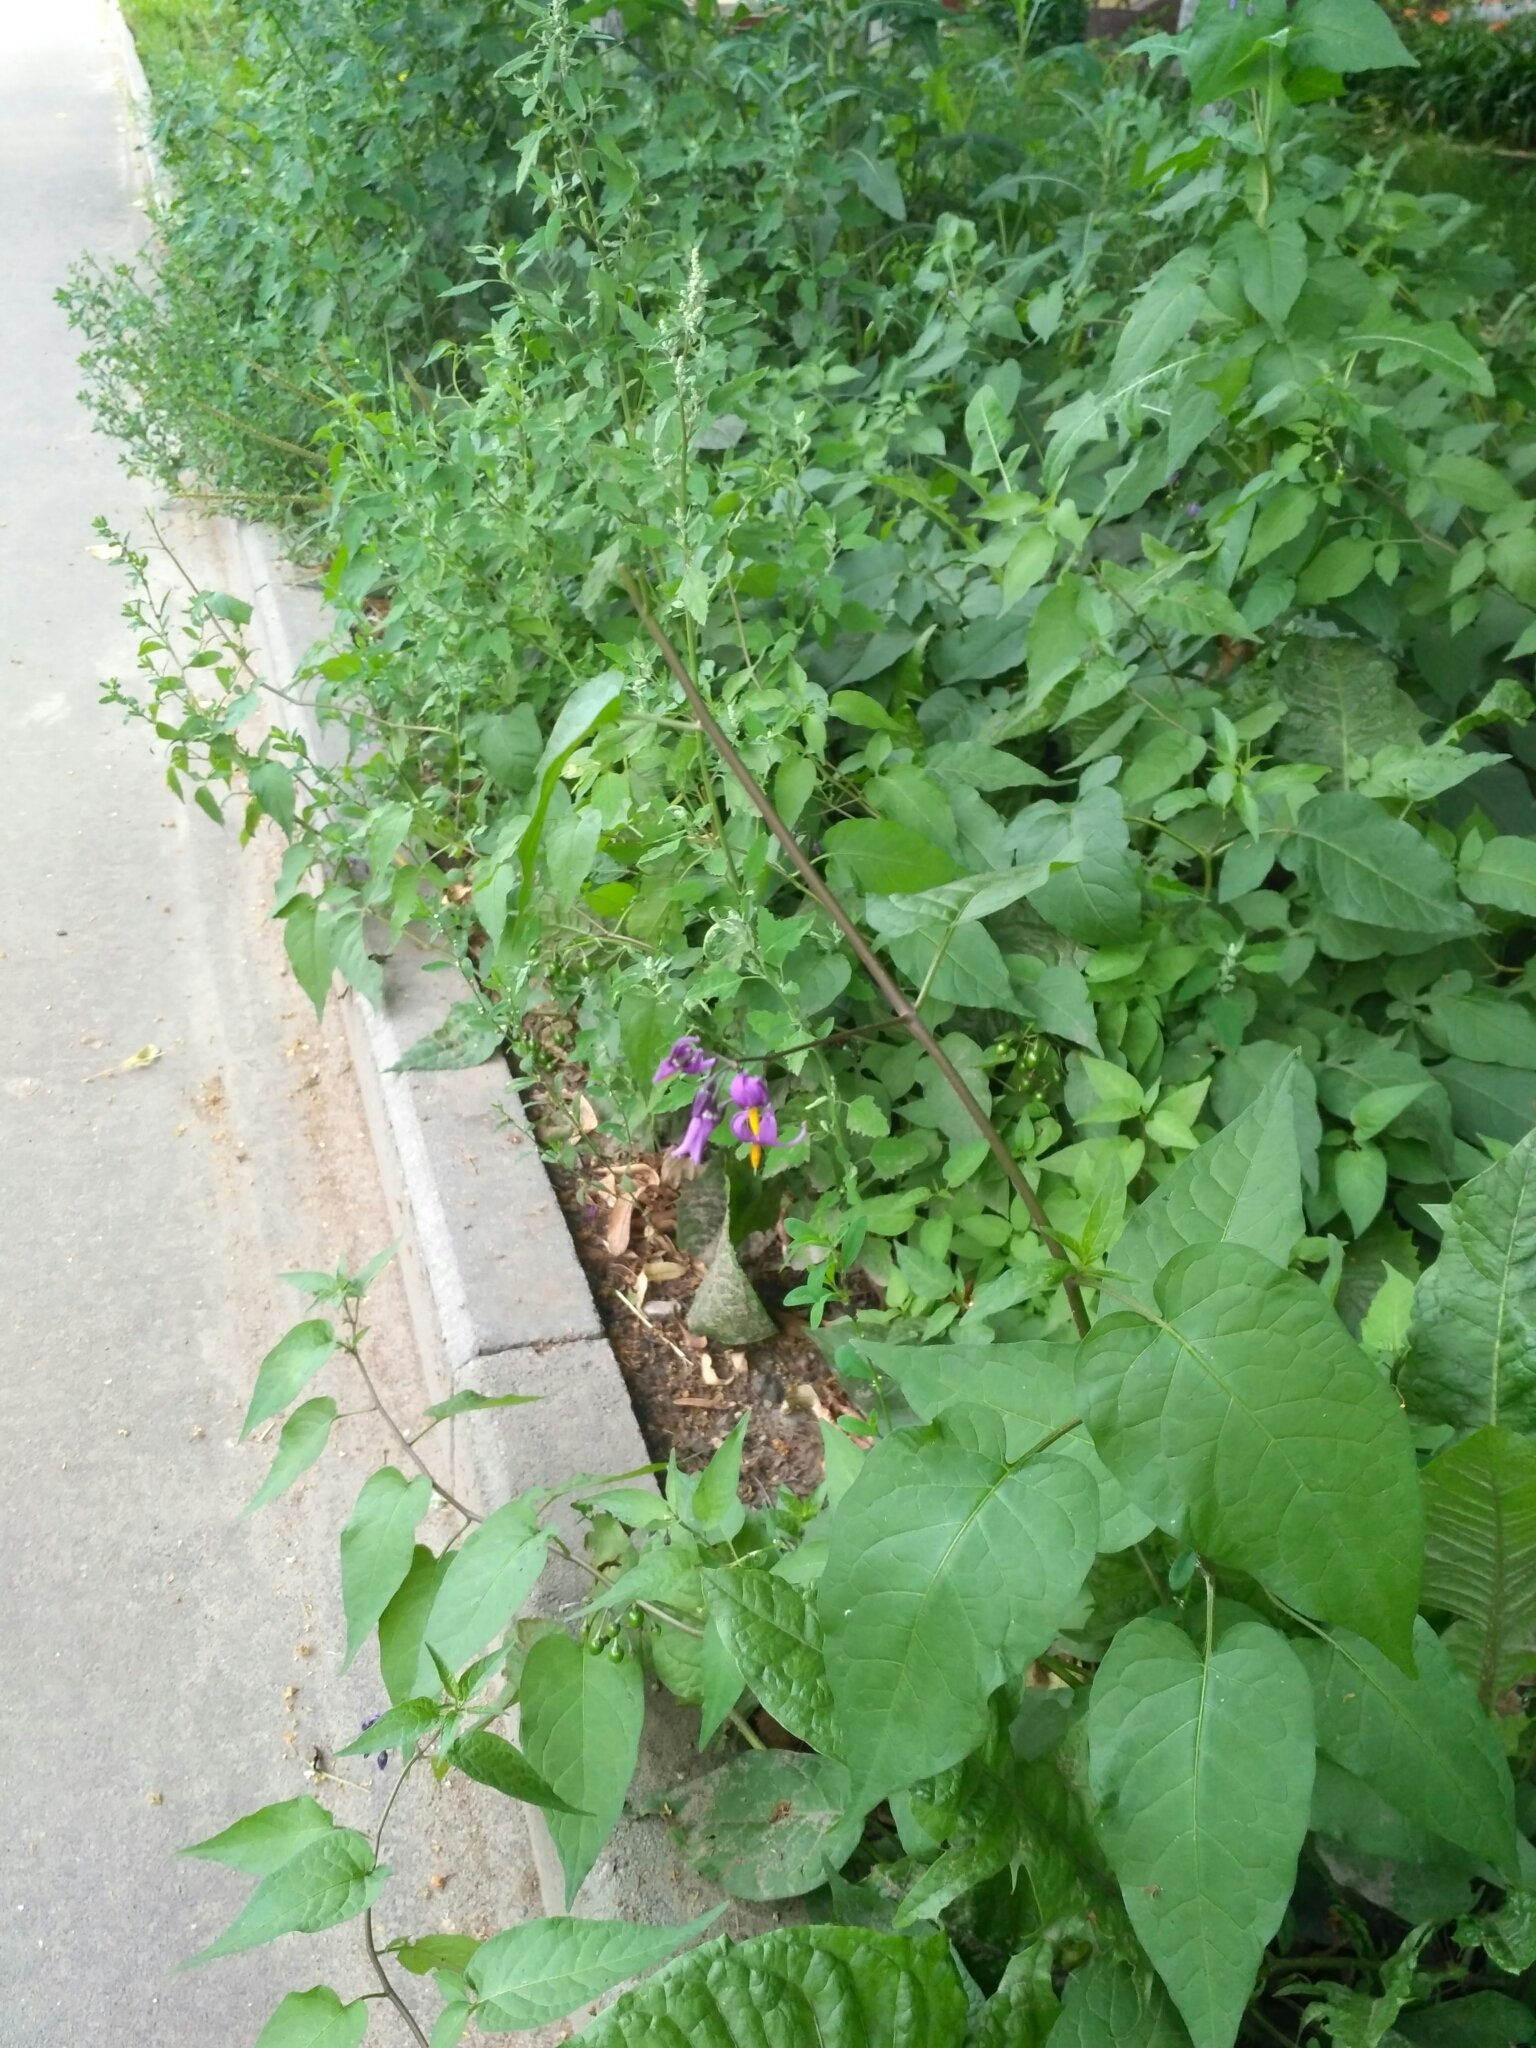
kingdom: Plantae
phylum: Tracheophyta
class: Magnoliopsida
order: Solanales
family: Solanaceae
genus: Solanum
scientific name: Solanum dulcamara
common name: Climbing nightshade
